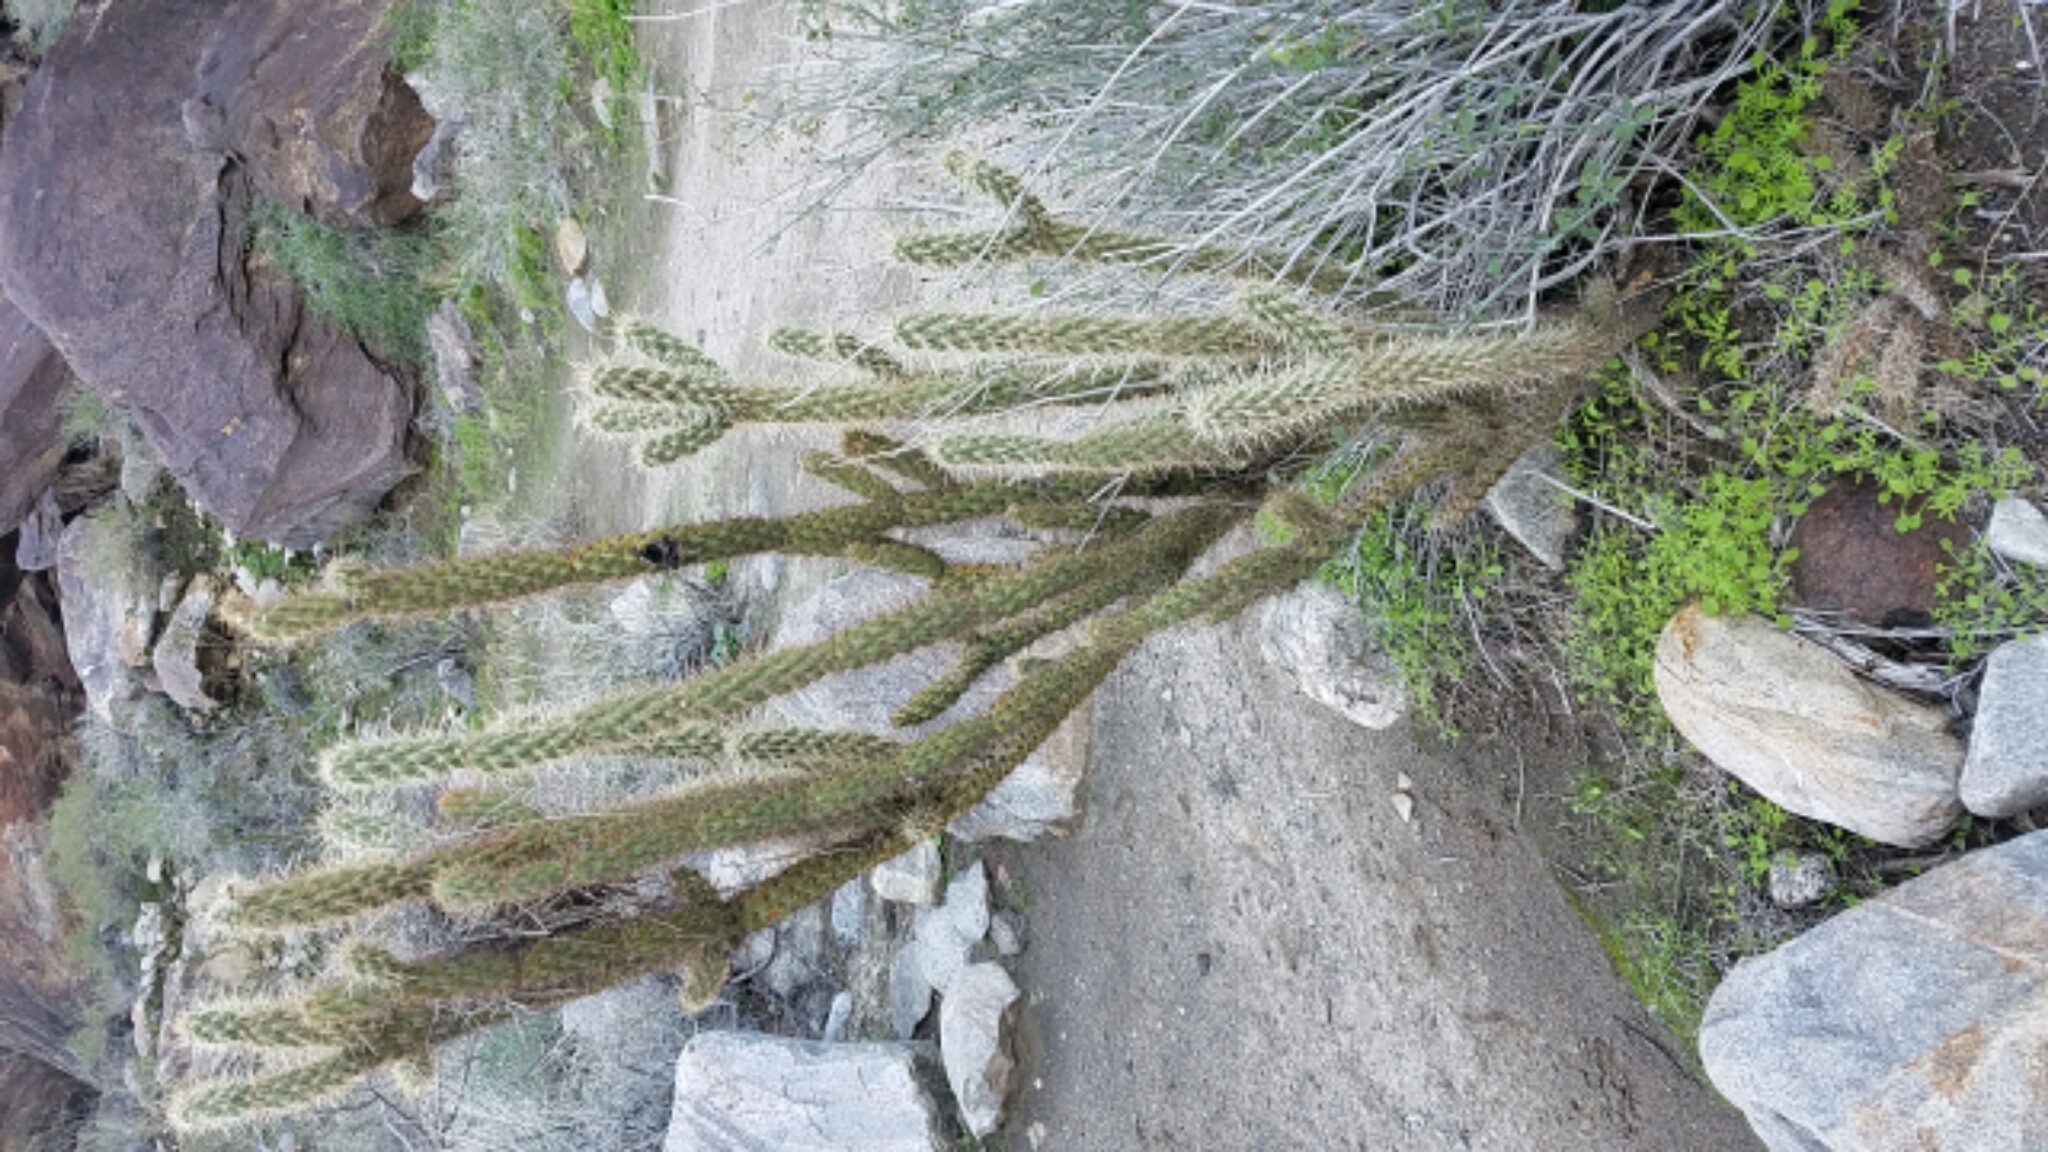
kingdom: Plantae
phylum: Tracheophyta
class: Magnoliopsida
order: Caryophyllales
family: Cactaceae
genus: Cylindropuntia
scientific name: Cylindropuntia ganderi
